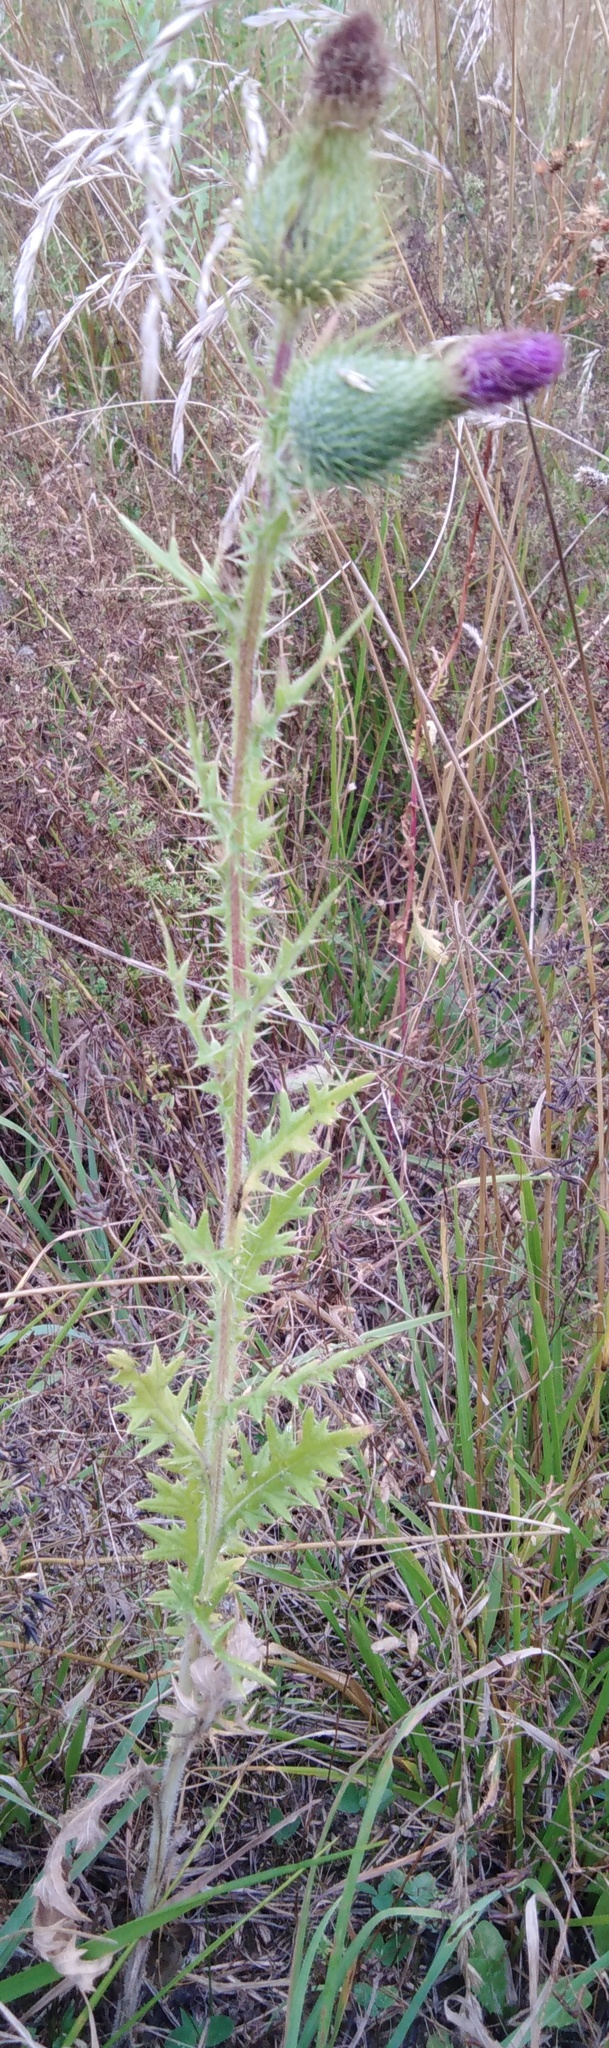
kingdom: Plantae
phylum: Tracheophyta
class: Magnoliopsida
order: Asterales
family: Asteraceae
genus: Cirsium
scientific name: Cirsium vulgare
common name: Bull thistle
